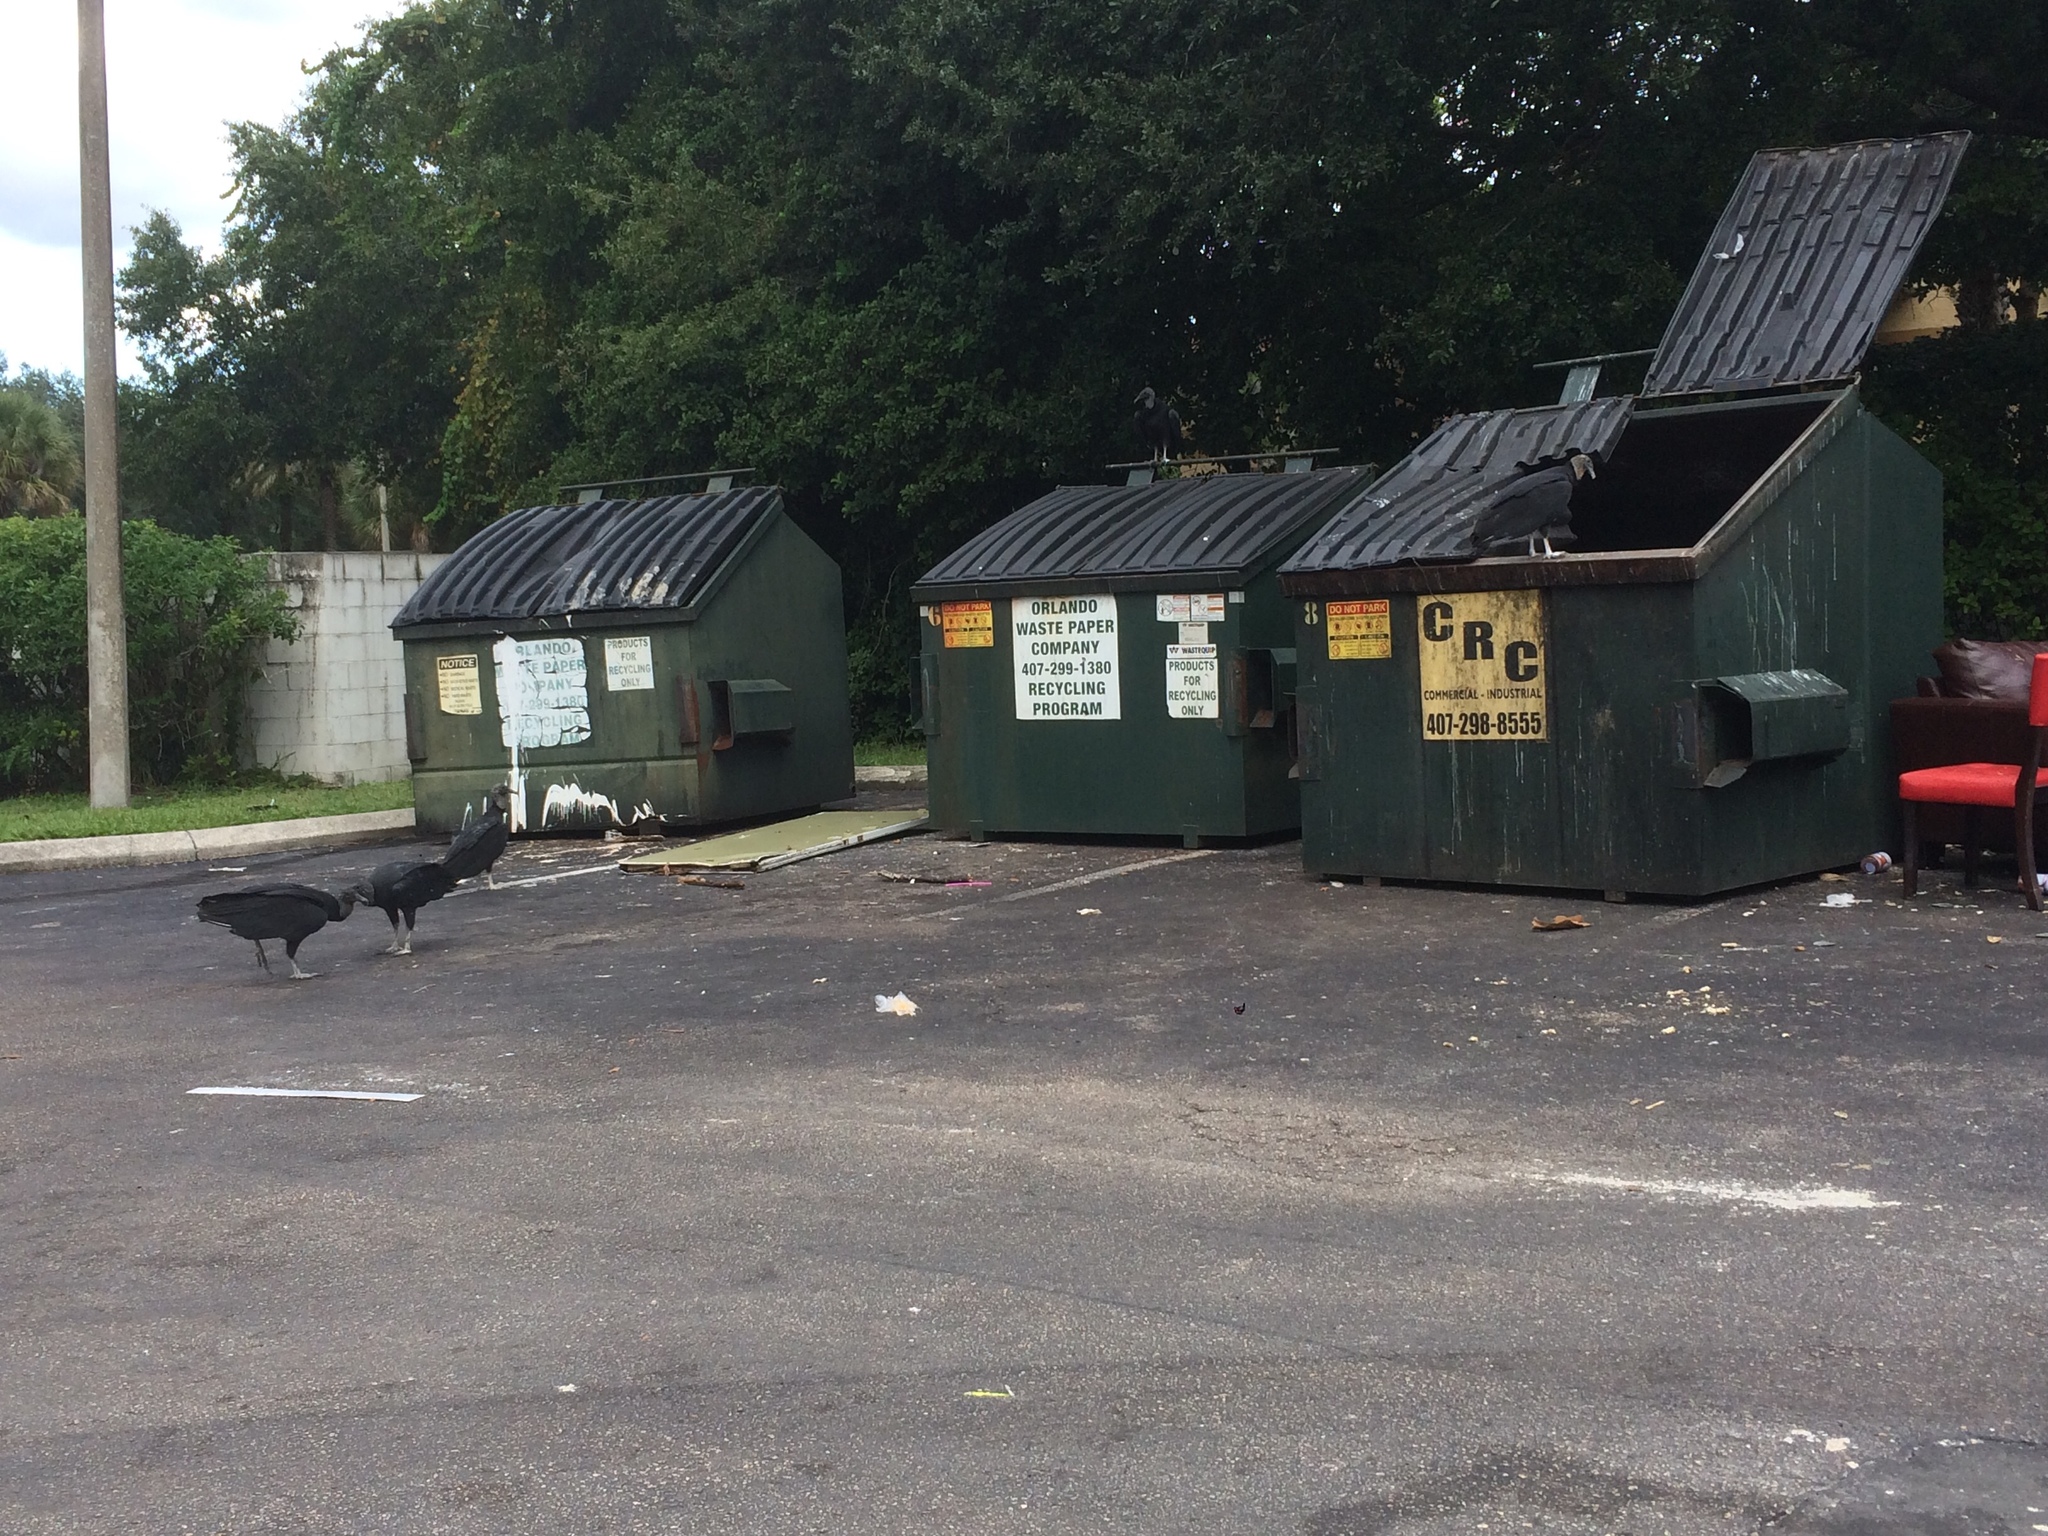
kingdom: Animalia
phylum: Chordata
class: Aves
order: Accipitriformes
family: Cathartidae
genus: Coragyps
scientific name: Coragyps atratus
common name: Black vulture
